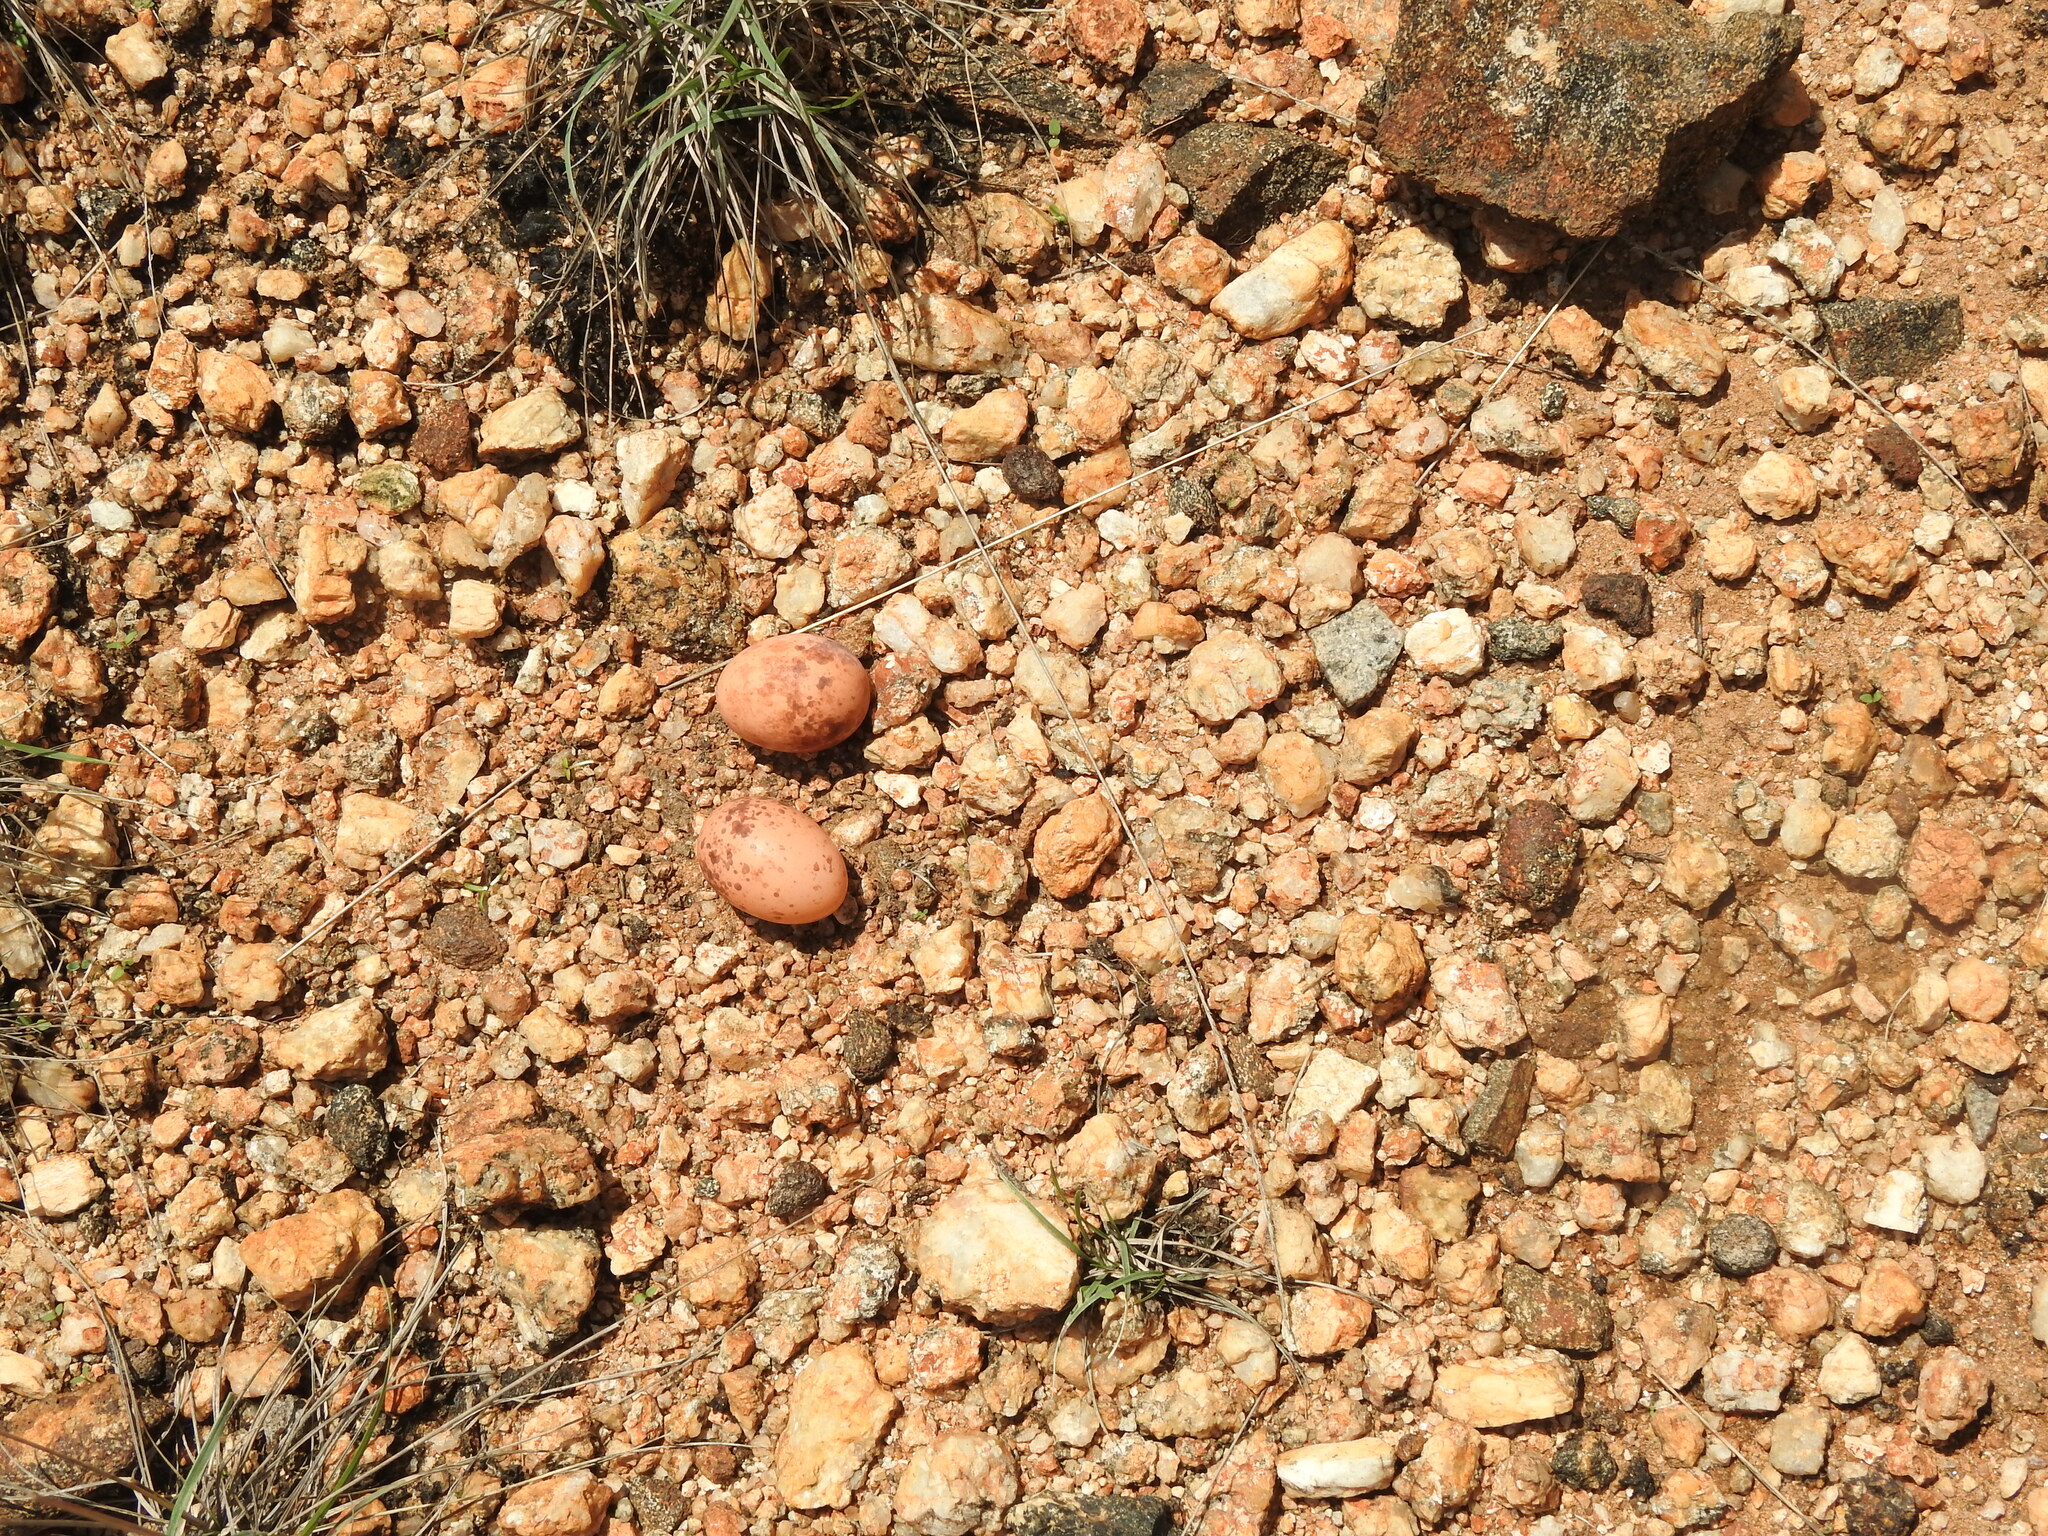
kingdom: Animalia
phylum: Chordata
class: Aves
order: Caprimulgiformes
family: Caprimulgidae
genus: Caprimulgus
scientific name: Caprimulgus asiaticus
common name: Indian nightjar
